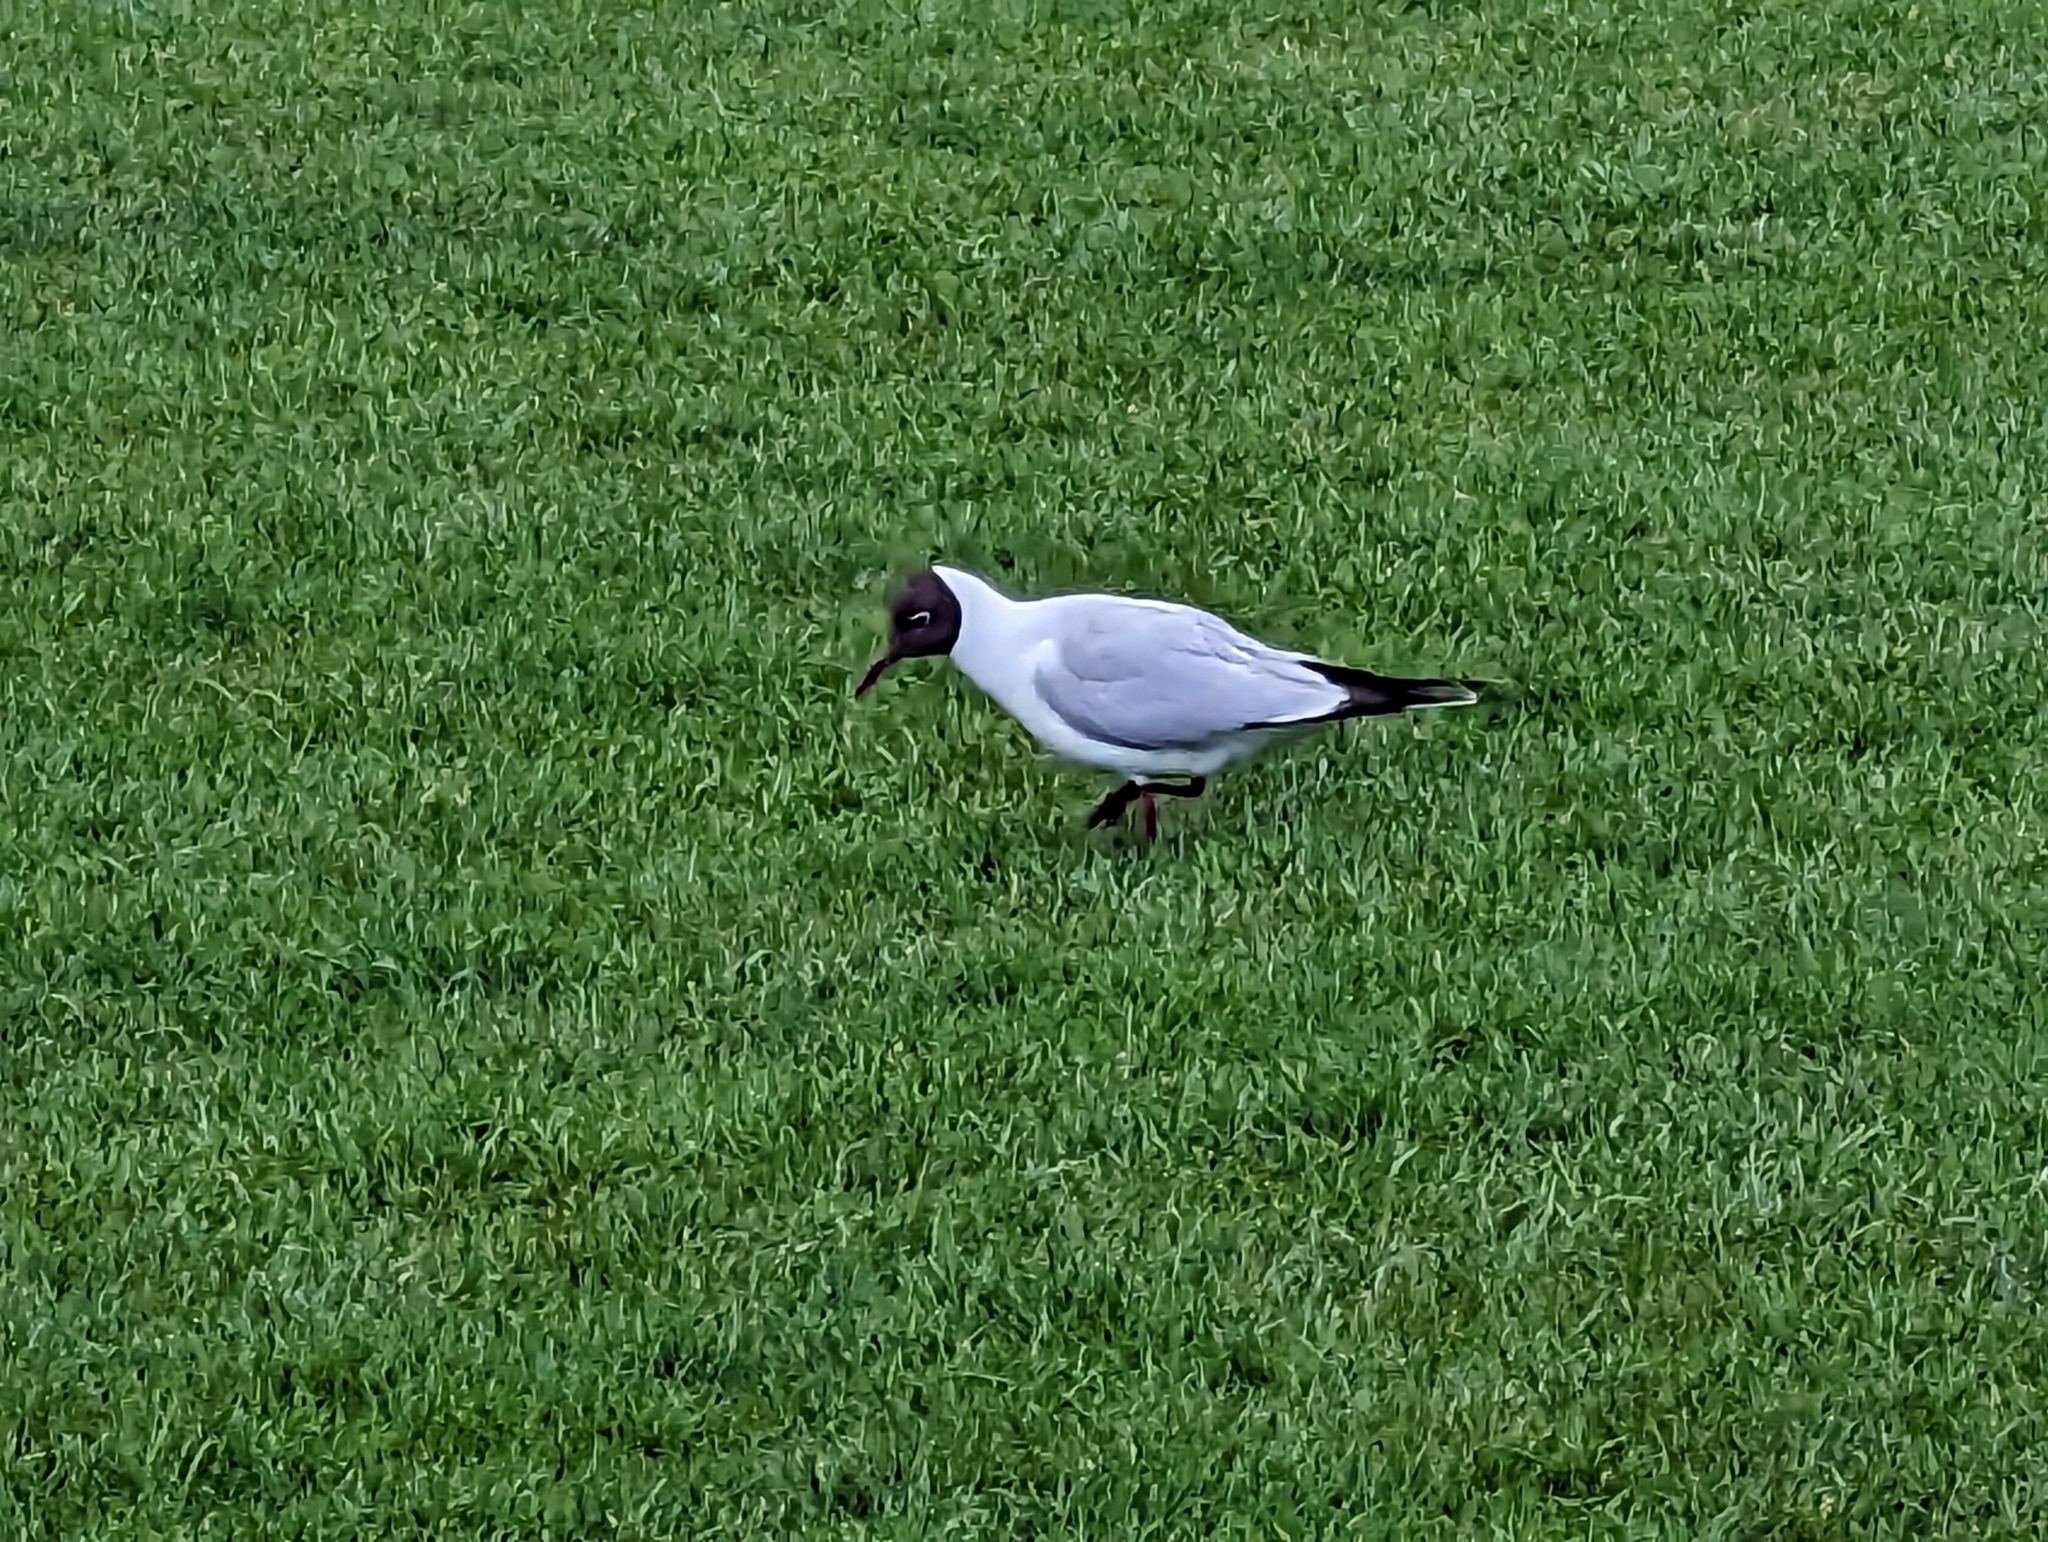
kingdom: Animalia
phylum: Chordata
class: Aves
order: Charadriiformes
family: Laridae
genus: Chroicocephalus
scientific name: Chroicocephalus ridibundus
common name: Black-headed gull
